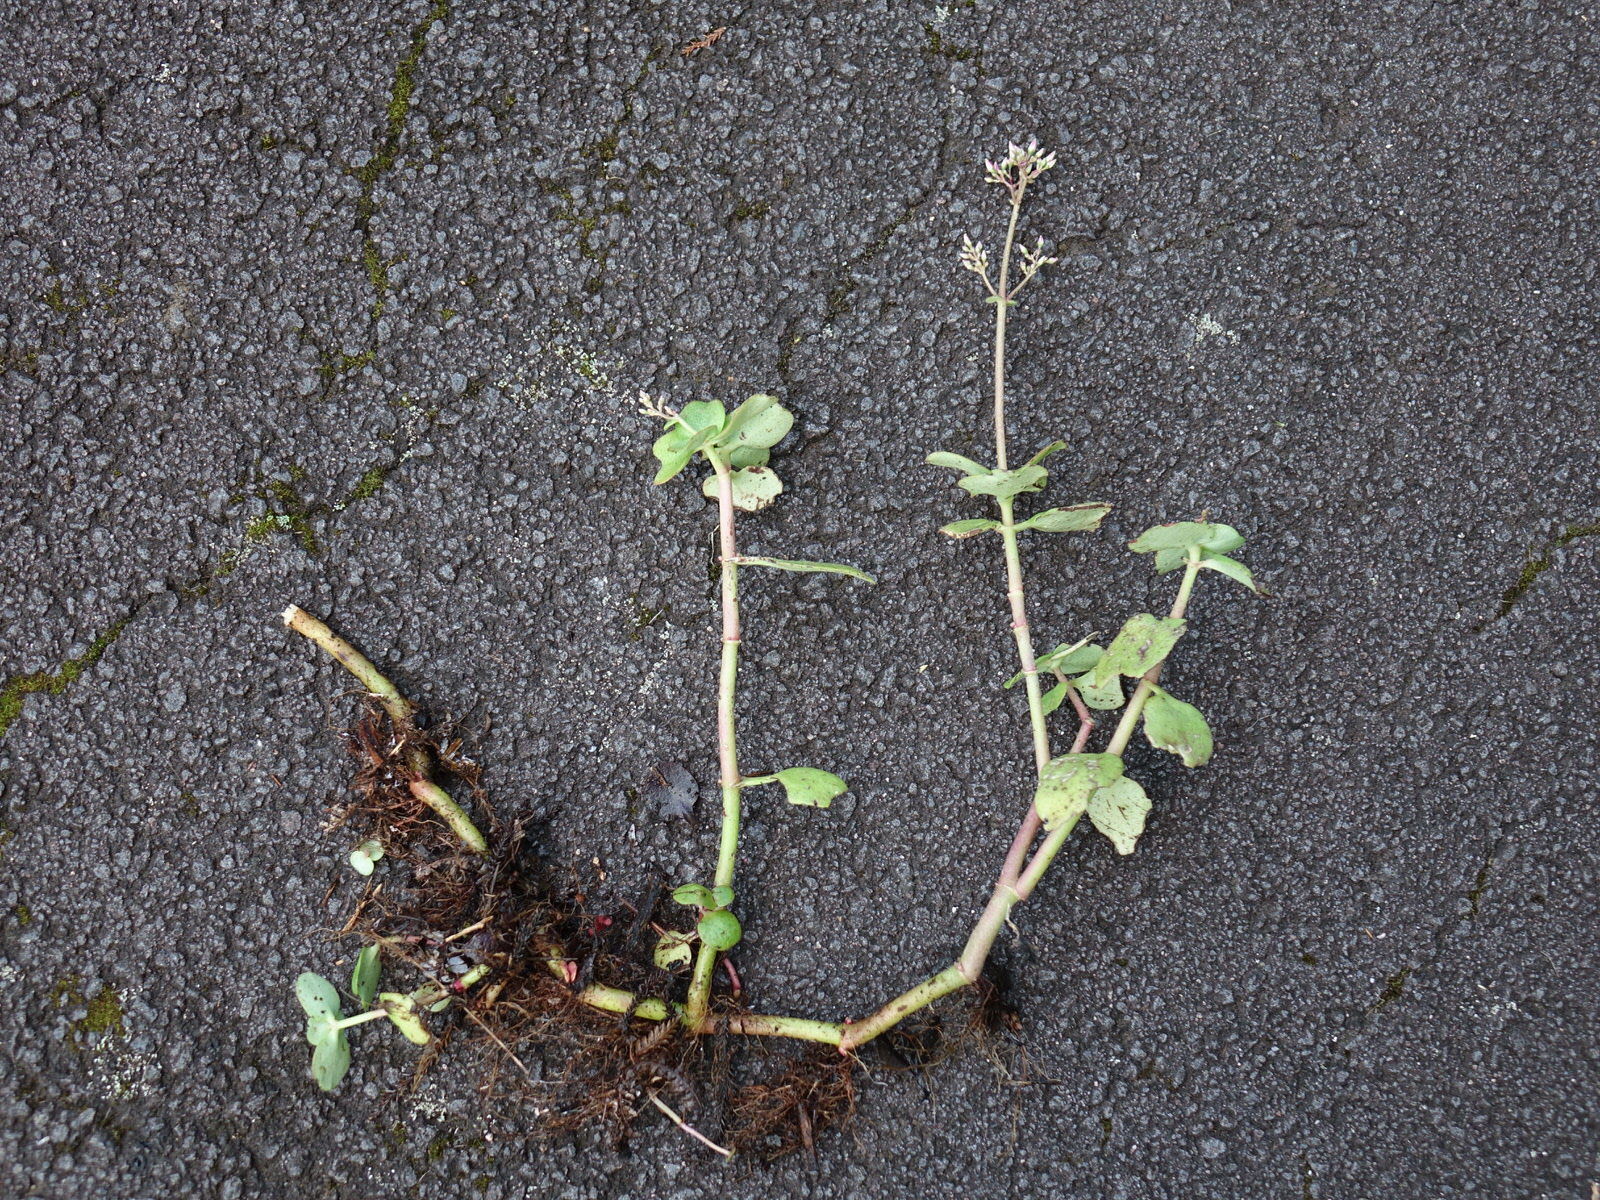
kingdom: Plantae
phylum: Tracheophyta
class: Magnoliopsida
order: Saxifragales
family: Crassulaceae
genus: Crassula
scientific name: Crassula multicava
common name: Cape province pygmyweed
